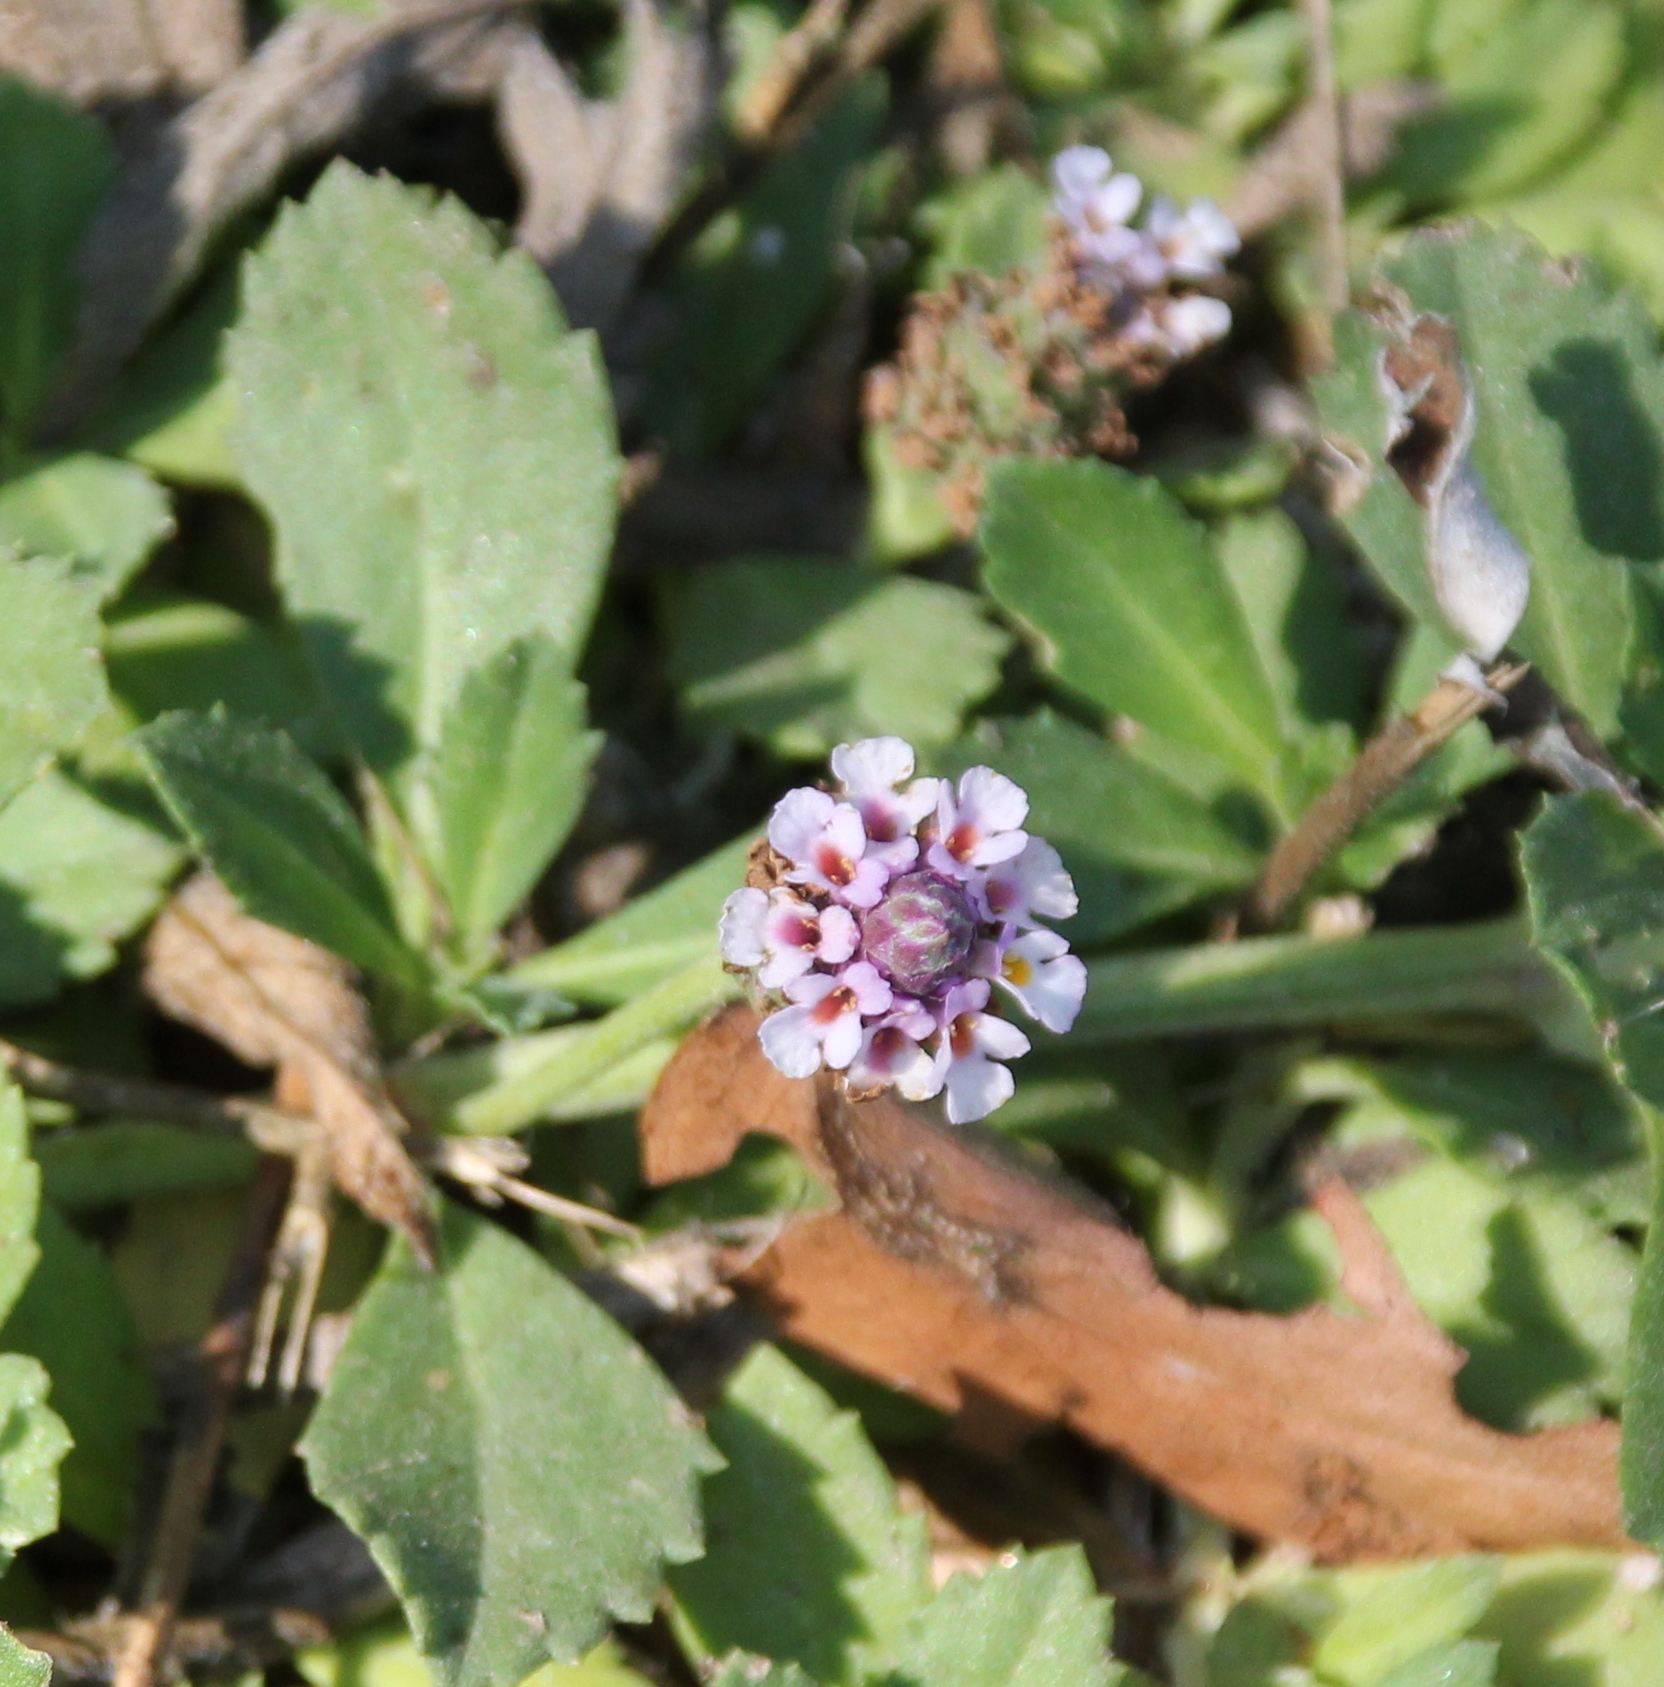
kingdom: Plantae
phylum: Tracheophyta
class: Magnoliopsida
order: Lamiales
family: Verbenaceae
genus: Phyla
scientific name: Phyla nodiflora
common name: Frogfruit
